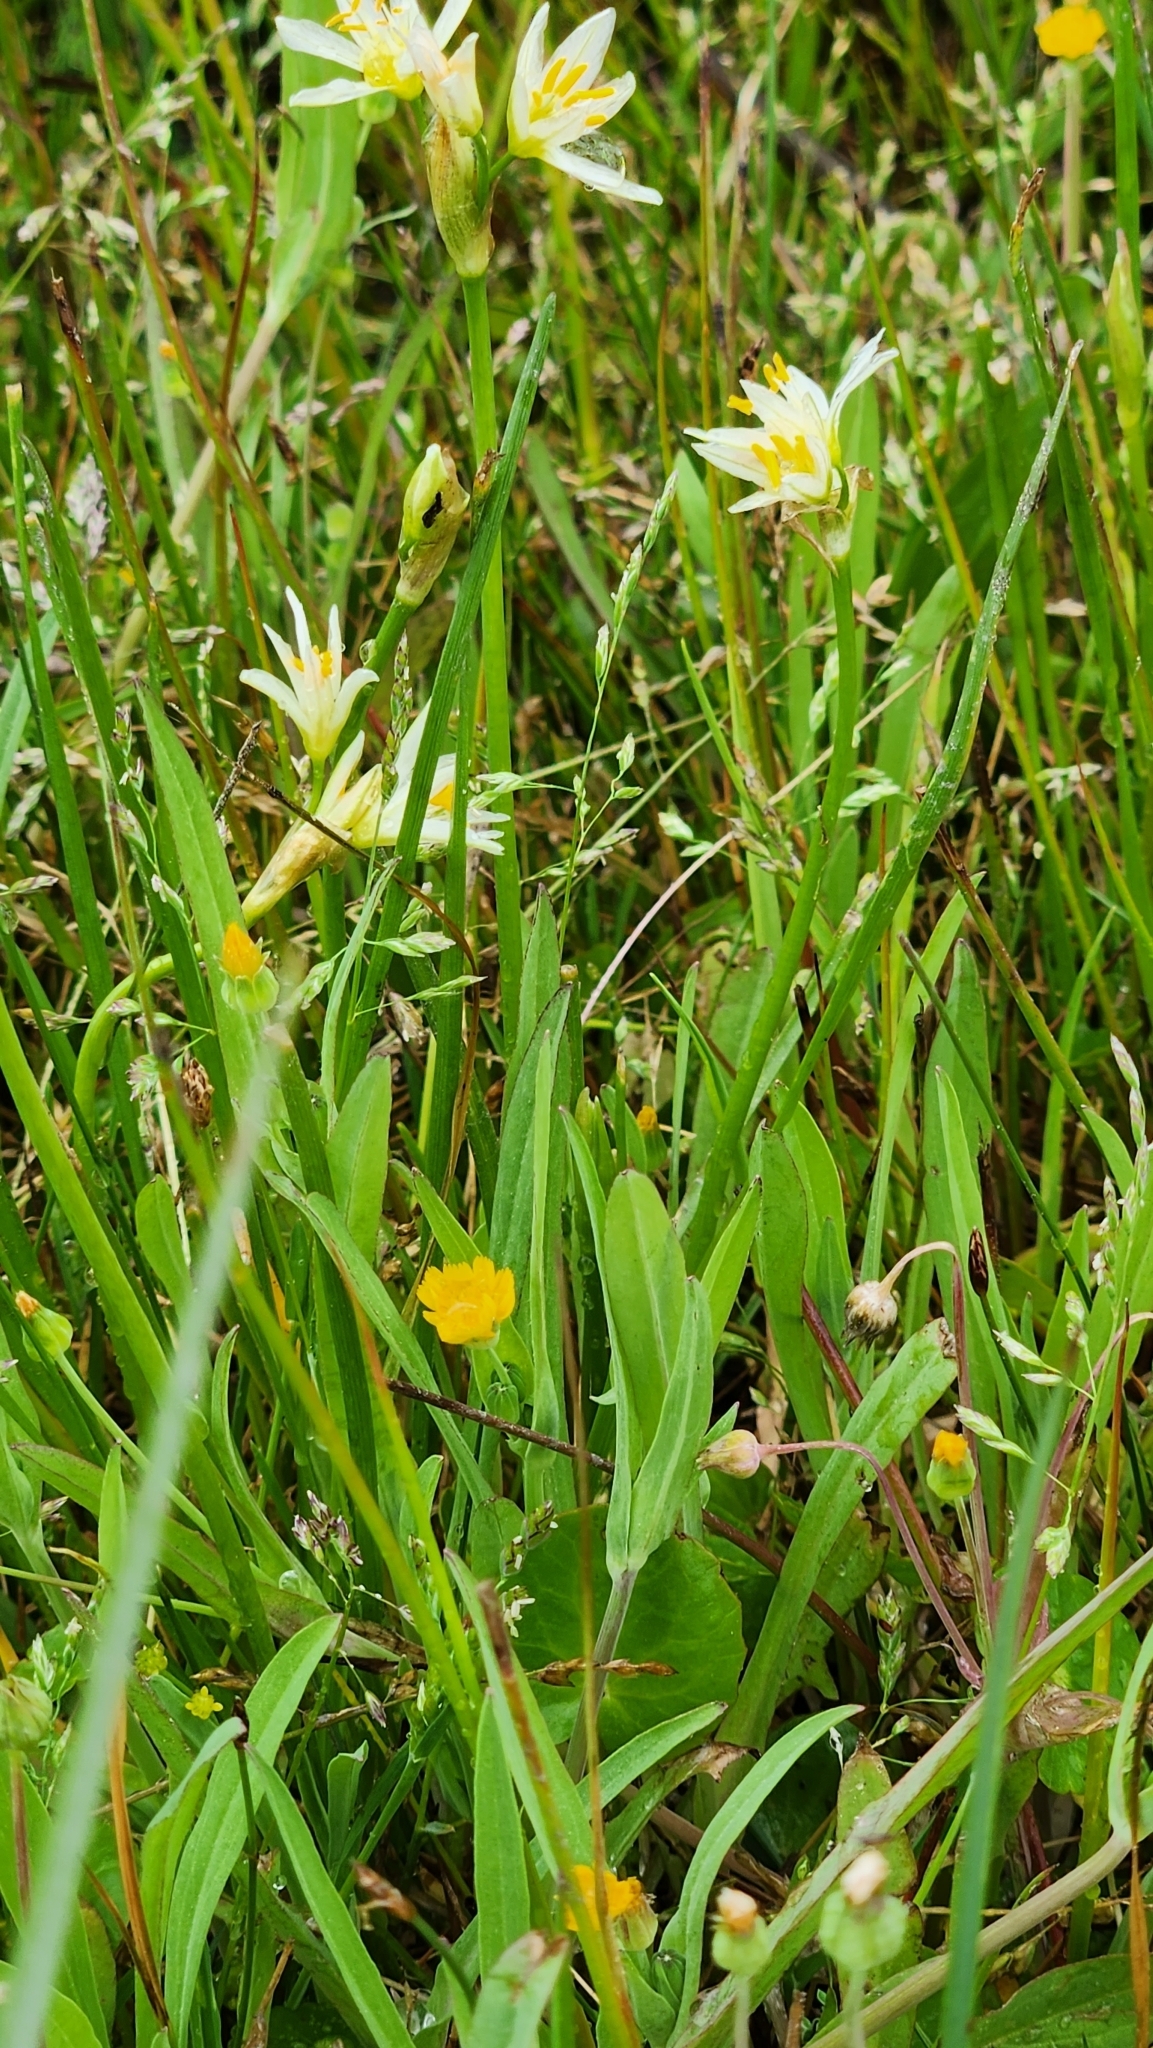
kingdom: Plantae
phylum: Tracheophyta
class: Liliopsida
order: Asparagales
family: Amaryllidaceae
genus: Nothoscordum
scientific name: Nothoscordum bivalve
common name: Crow-poison
